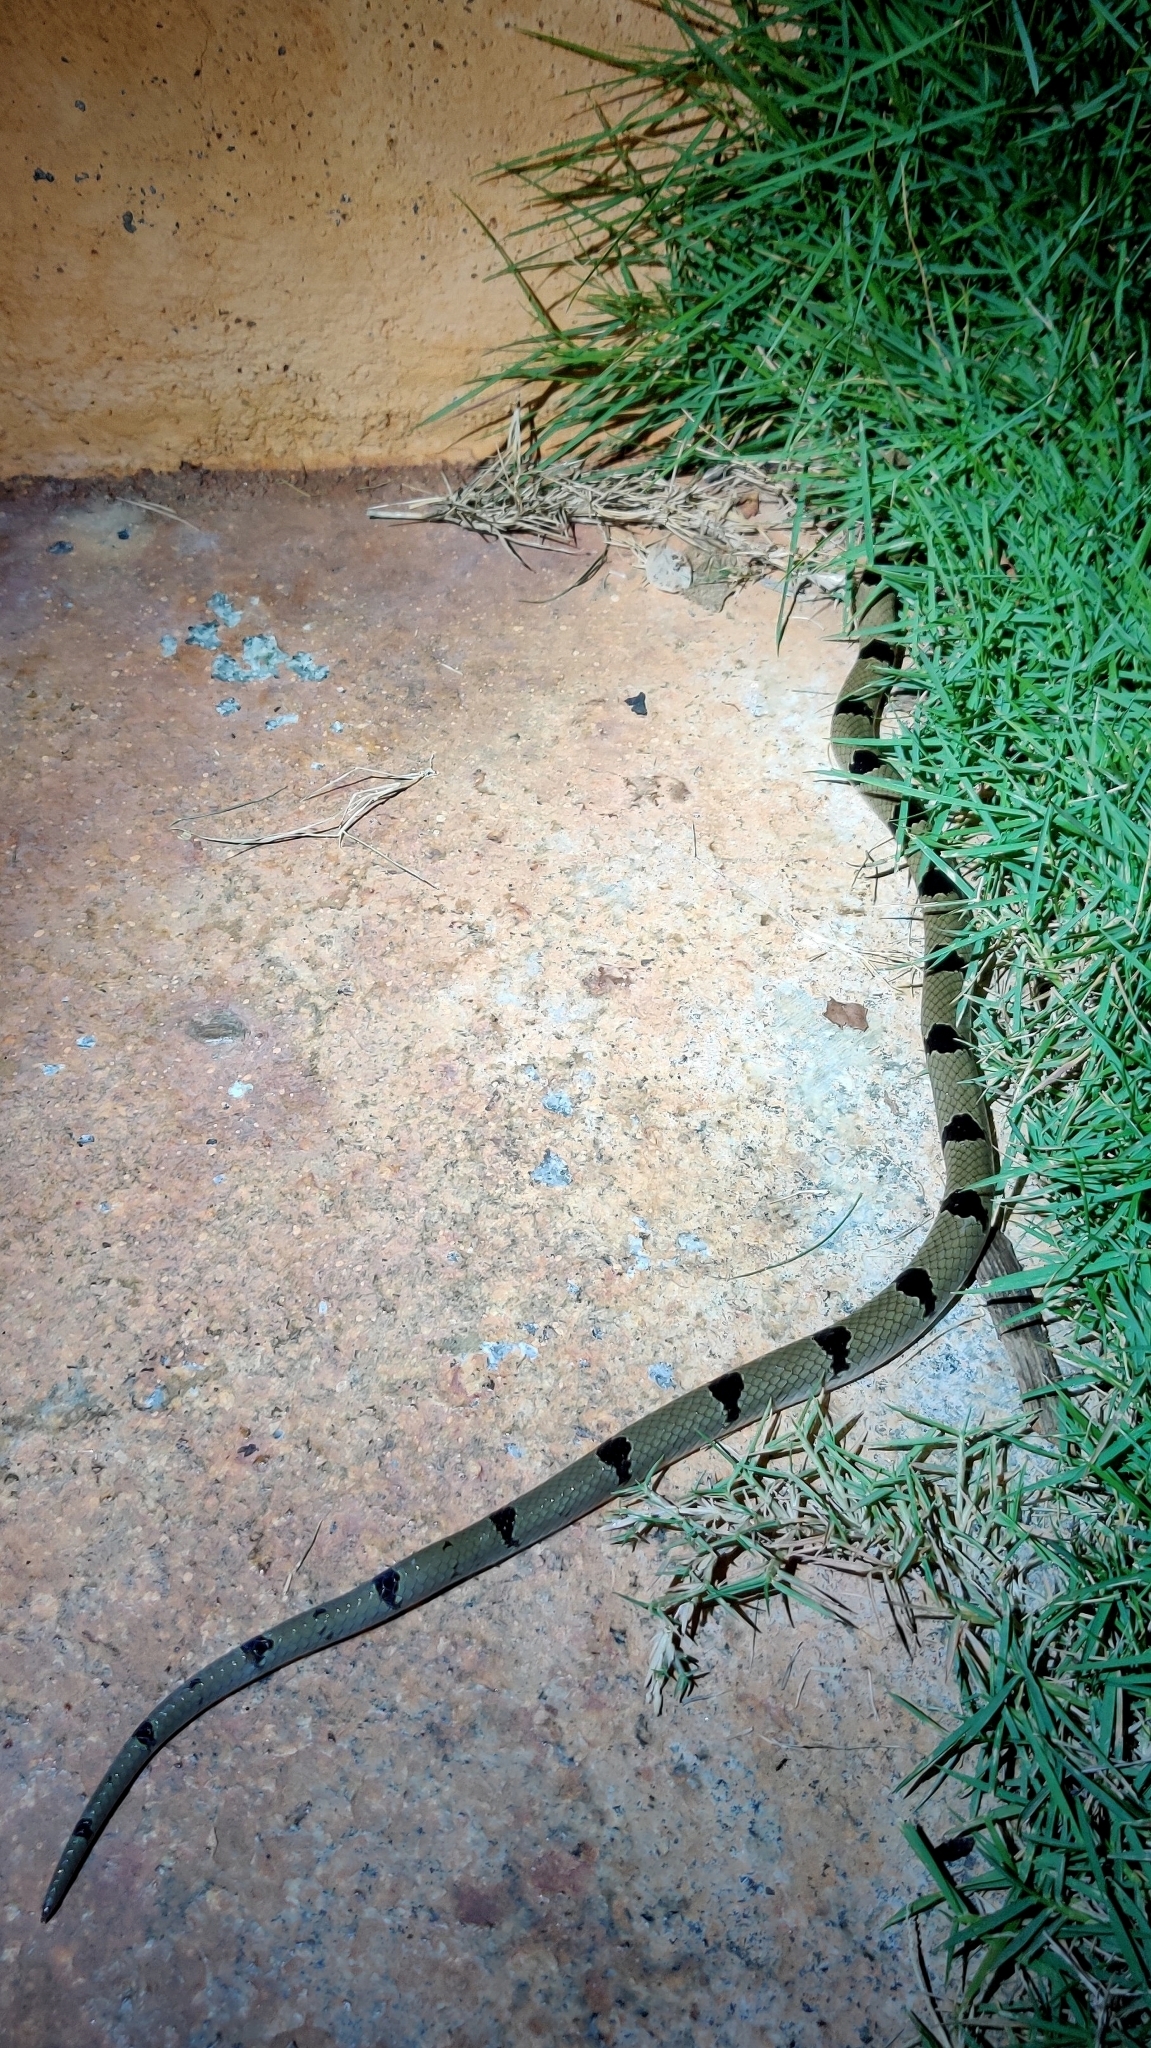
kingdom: Animalia
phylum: Chordata
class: Squamata
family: Colubridae
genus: Oligodon
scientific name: Oligodon arnensis
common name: Banded kukri
